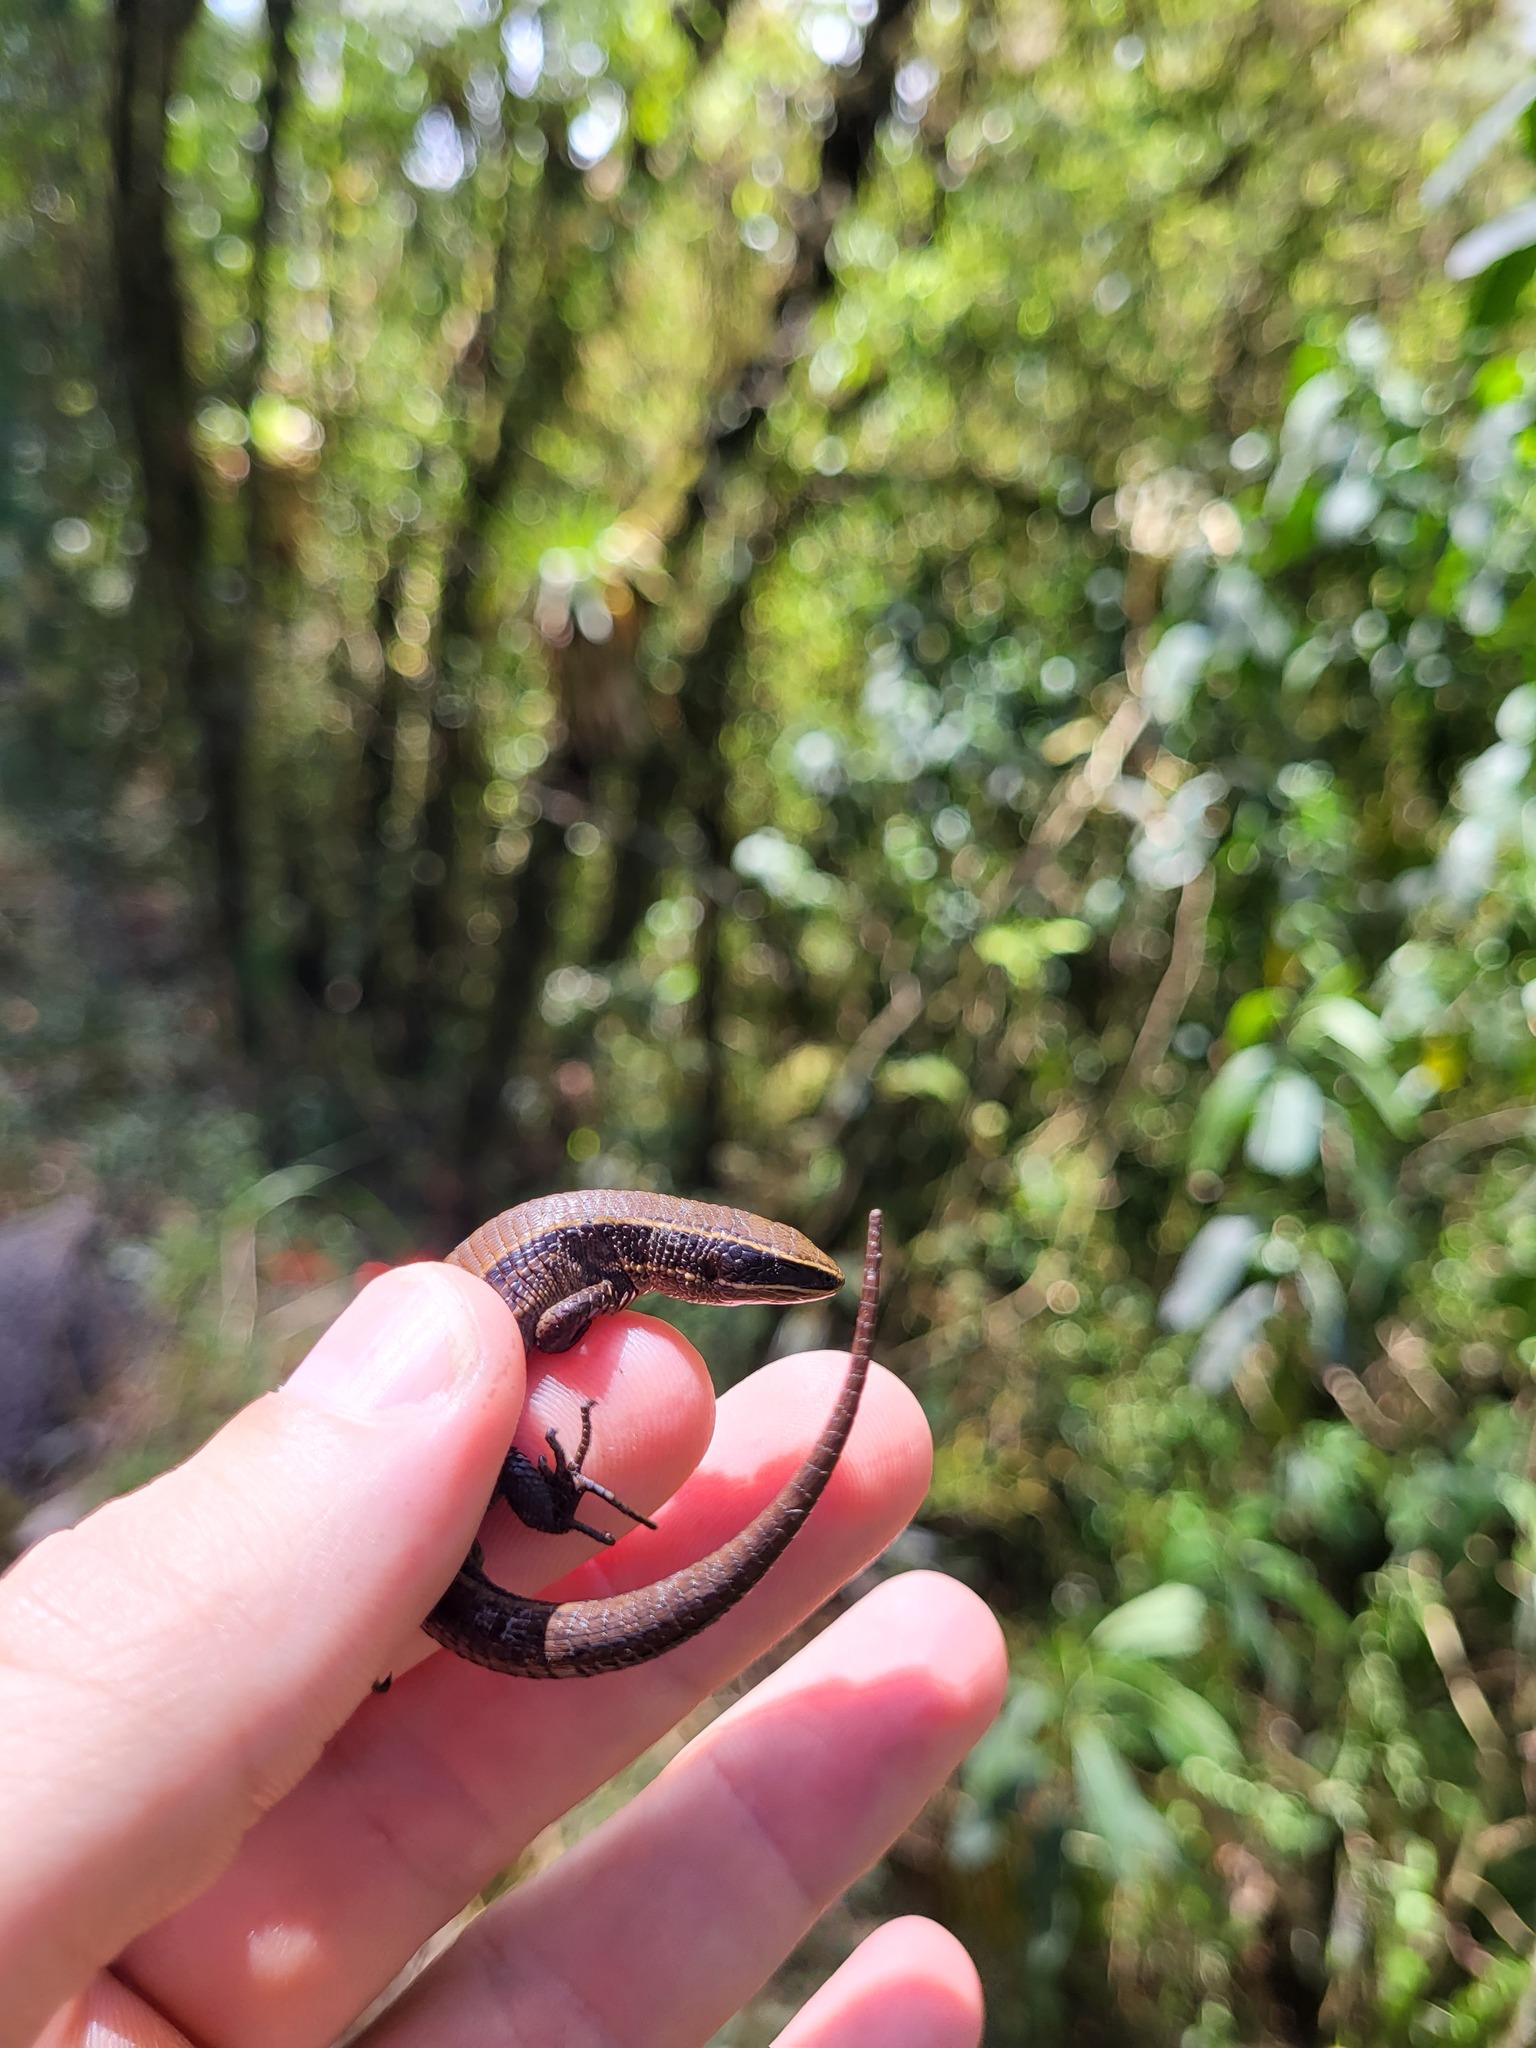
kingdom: Animalia
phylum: Chordata
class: Squamata
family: Gymnophthalmidae
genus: Pholidobolus
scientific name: Pholidobolus montium
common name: Mountain pholidobolus
